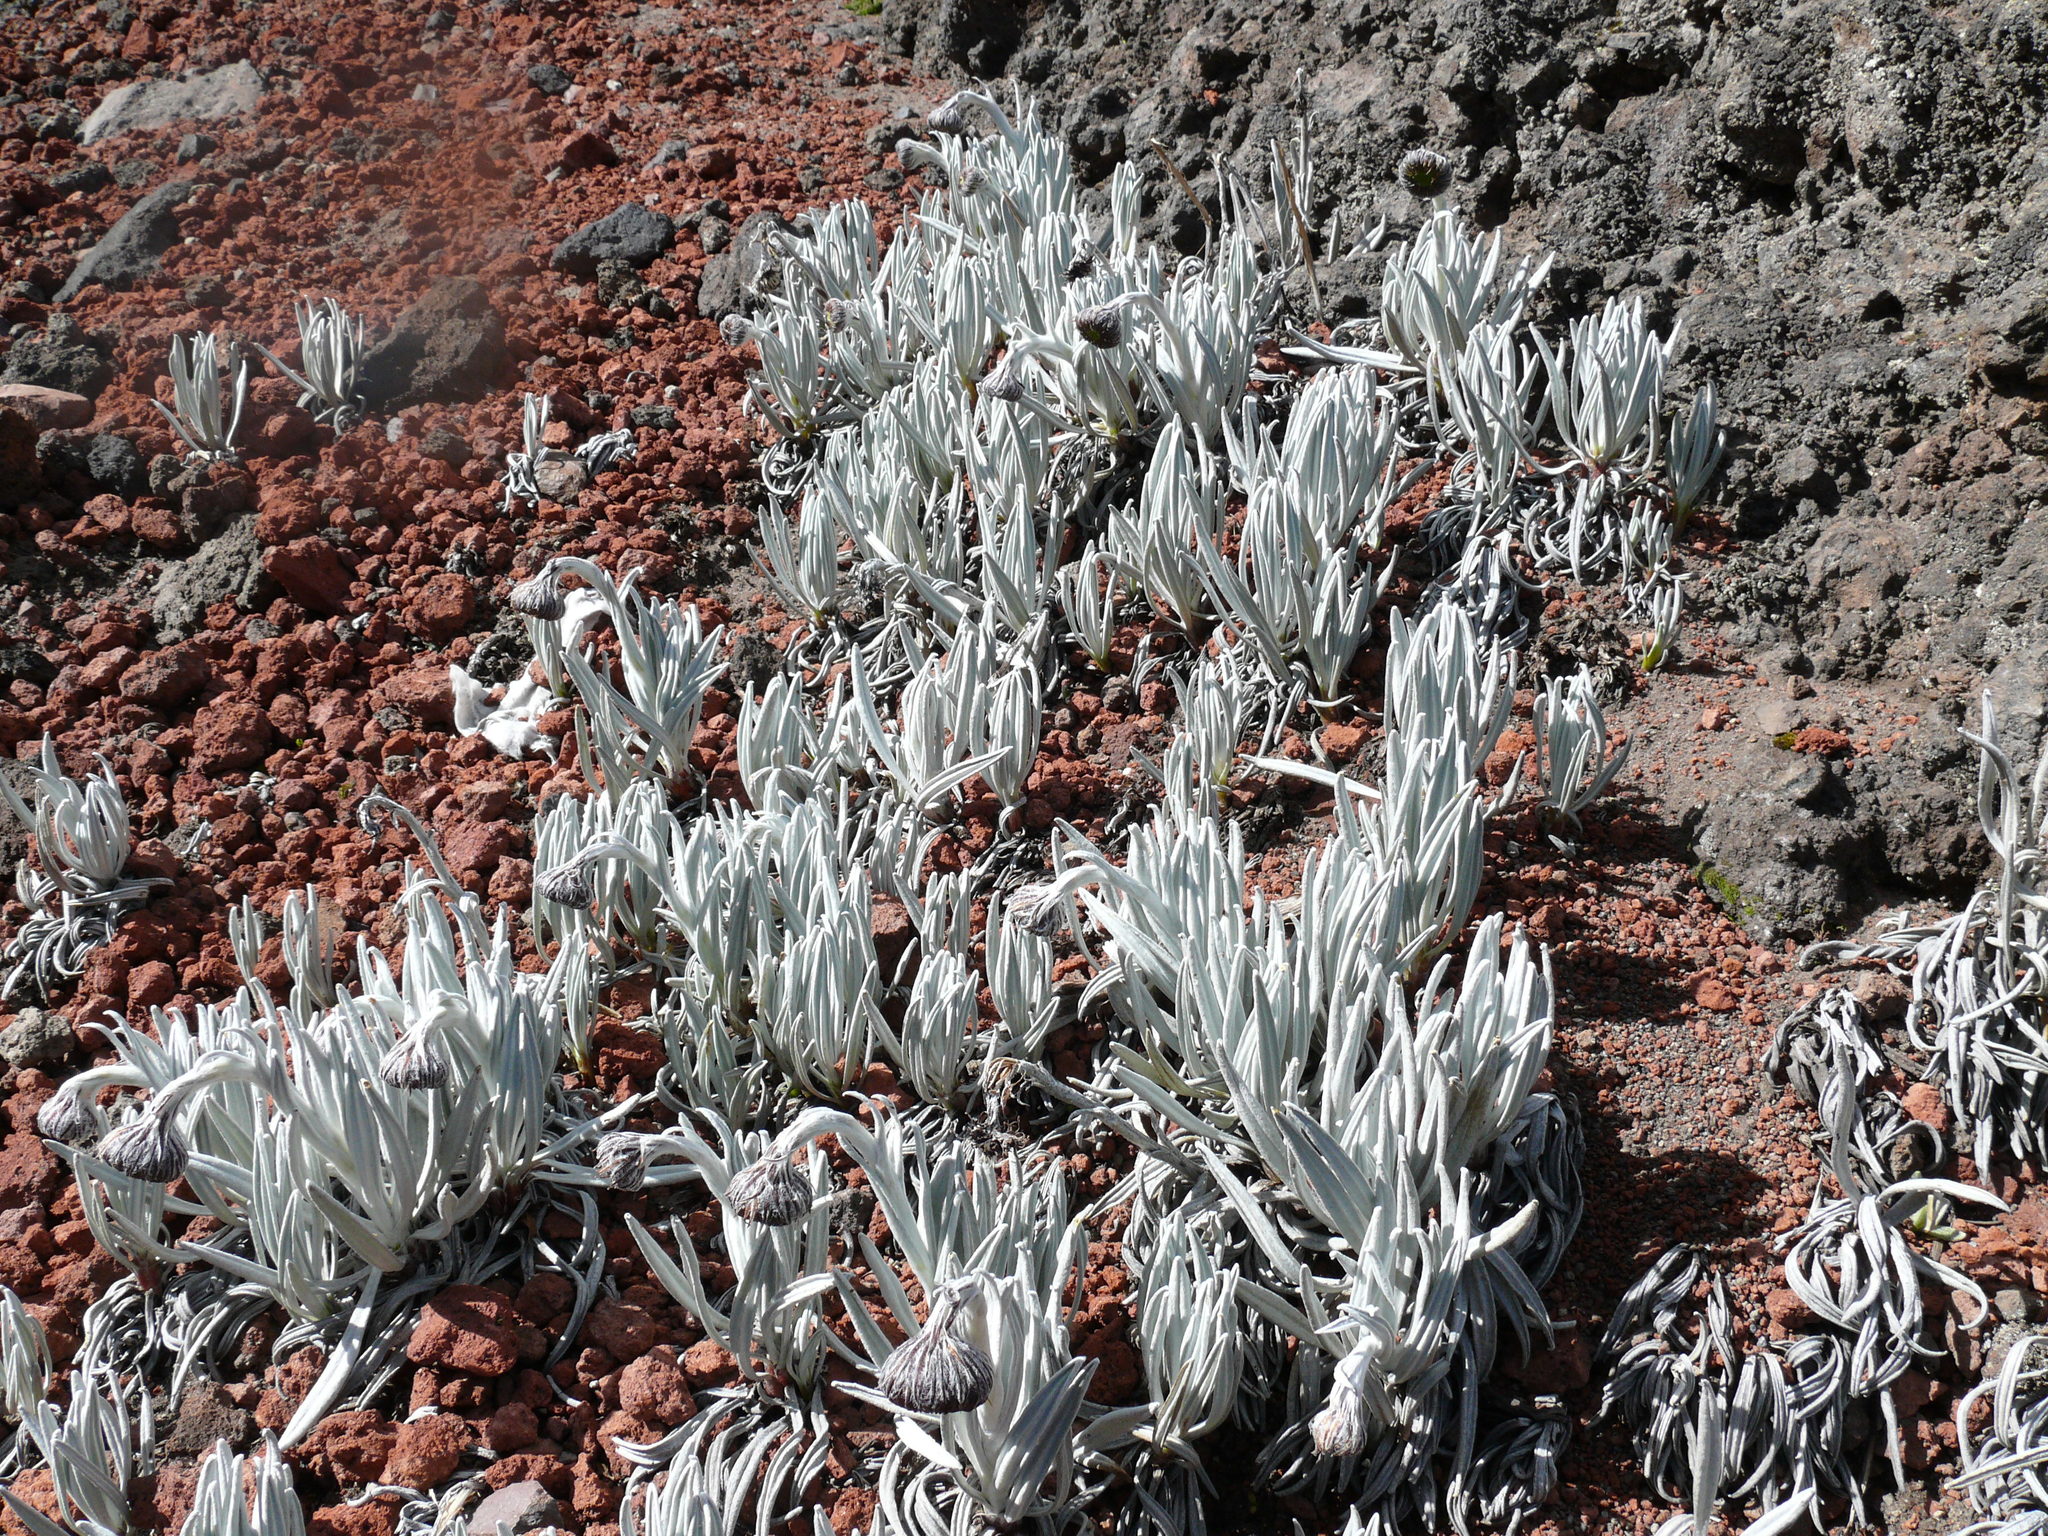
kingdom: Plantae
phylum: Tracheophyta
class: Magnoliopsida
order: Asterales
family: Asteraceae
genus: Culcitium
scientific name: Culcitium nivale
